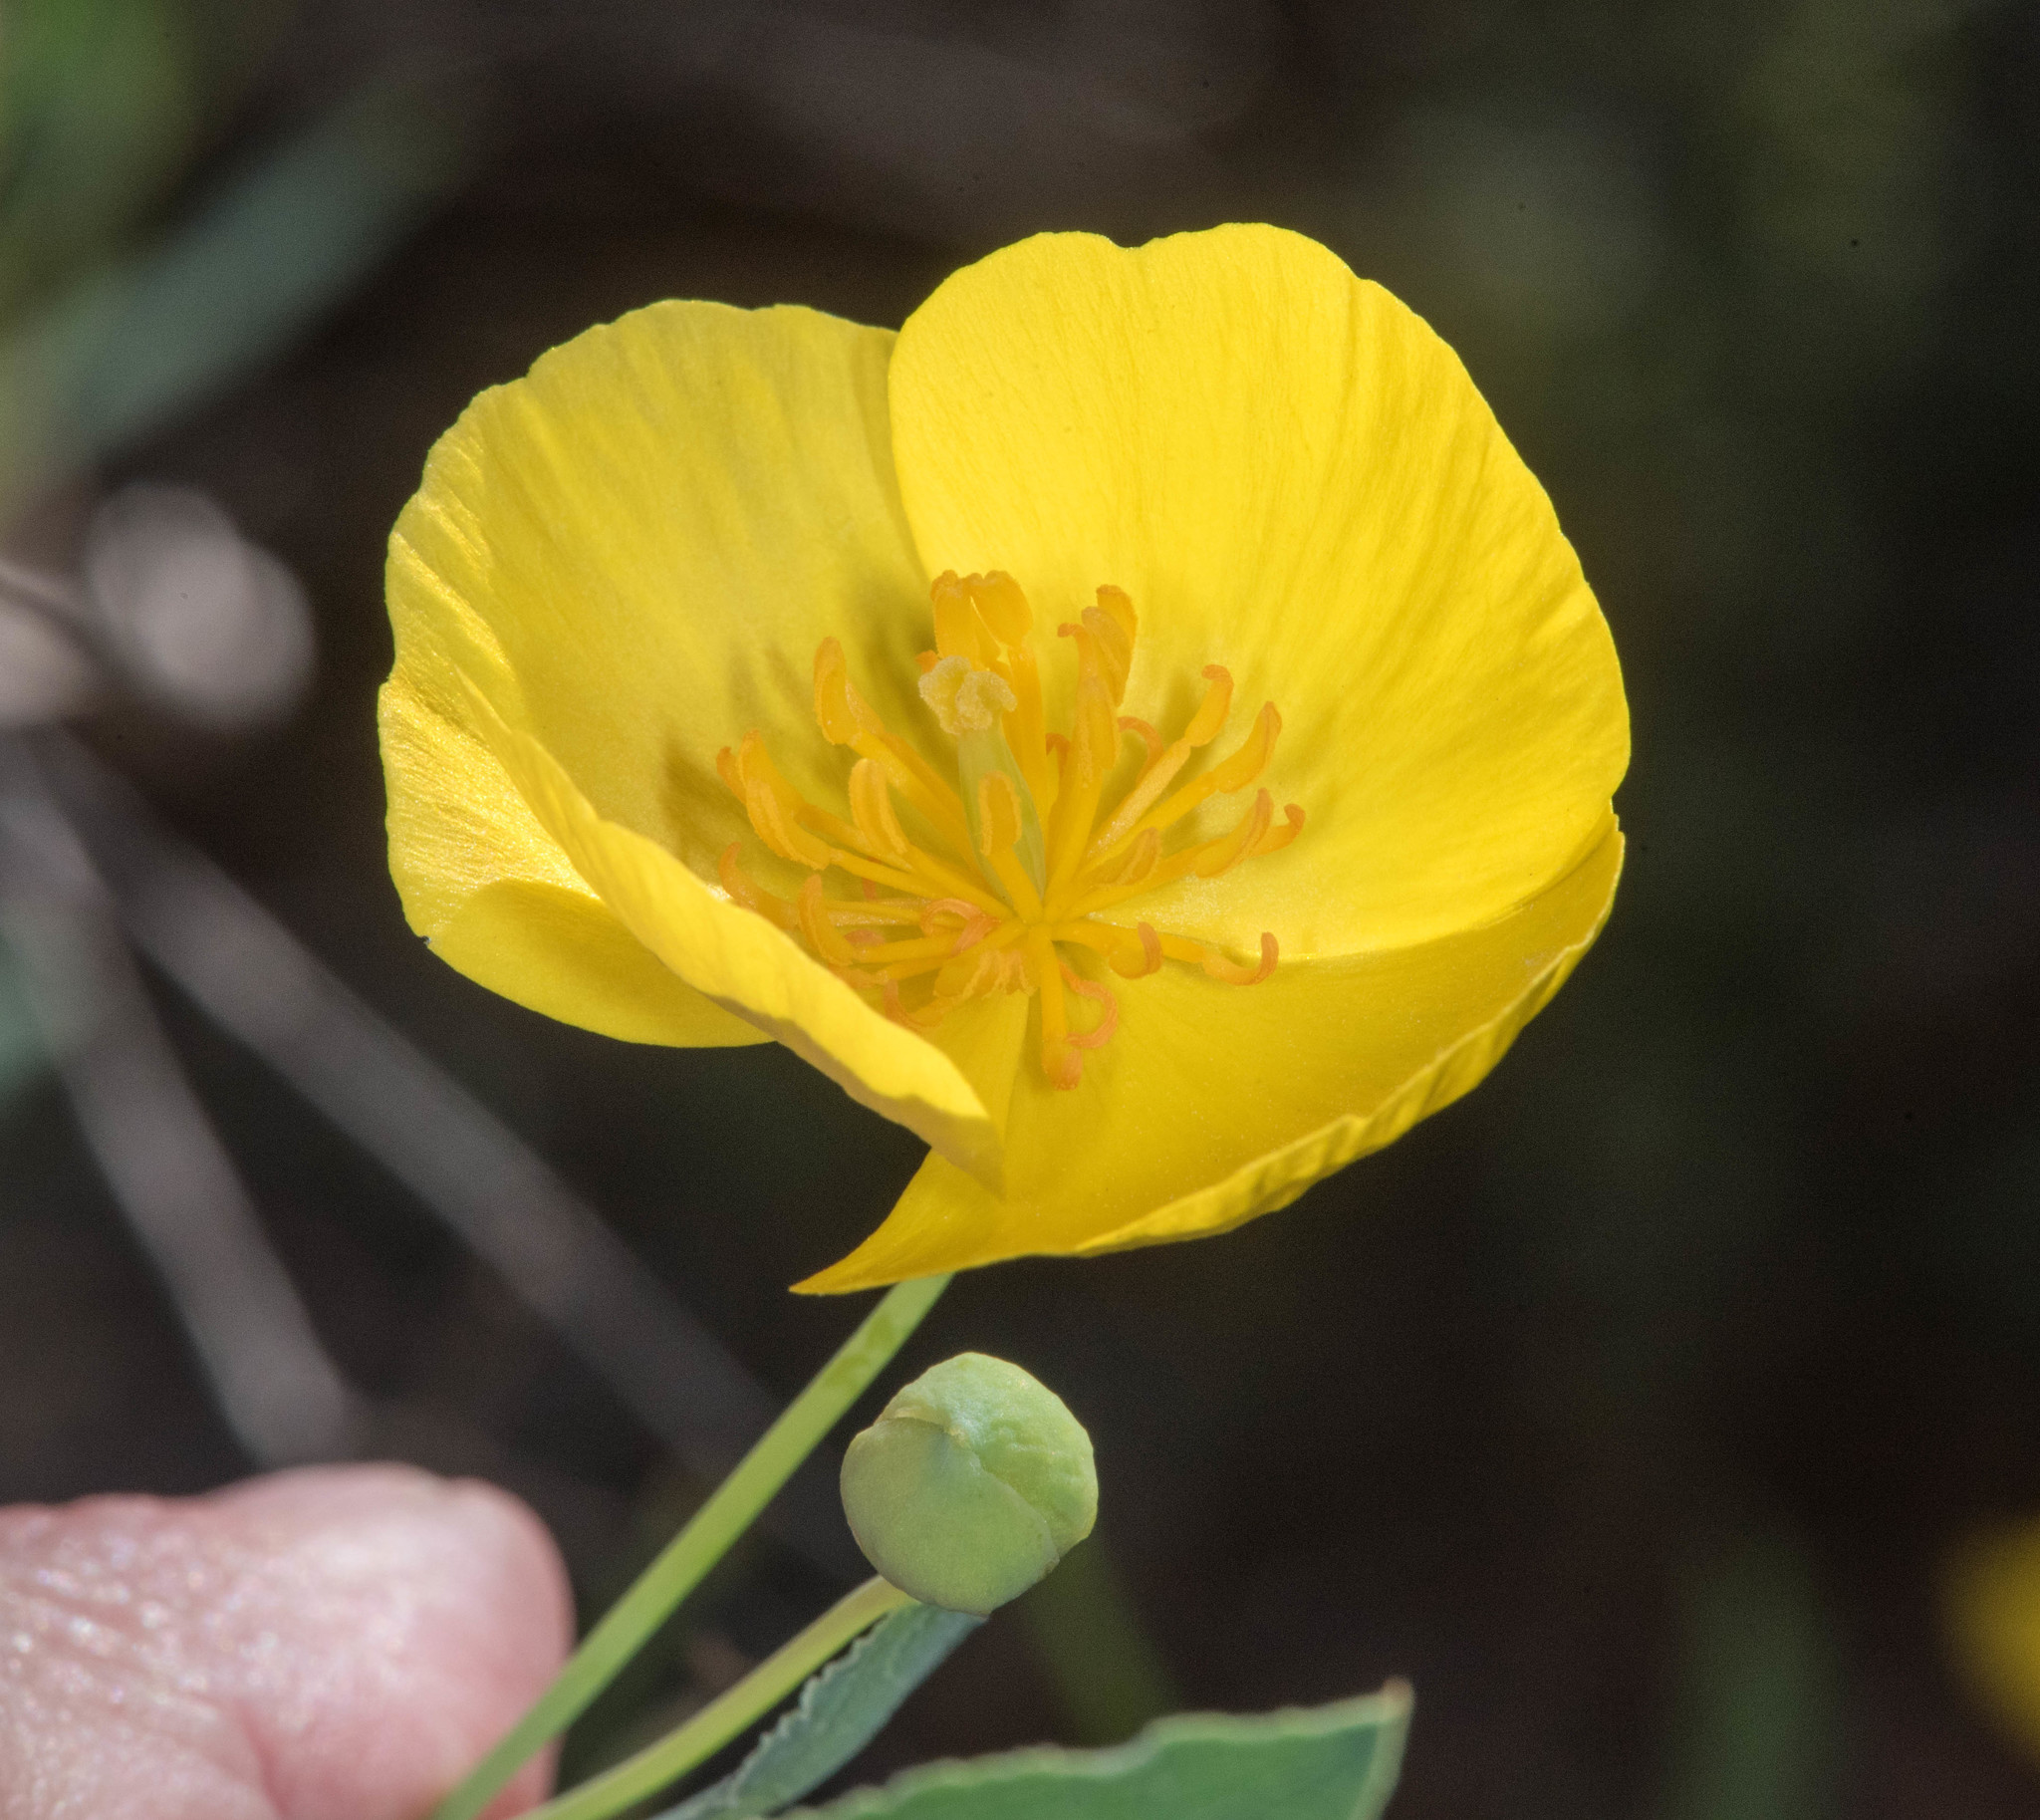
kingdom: Plantae
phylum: Tracheophyta
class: Magnoliopsida
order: Ranunculales
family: Papaveraceae
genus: Dendromecon
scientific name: Dendromecon rigida
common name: Tree poppy
